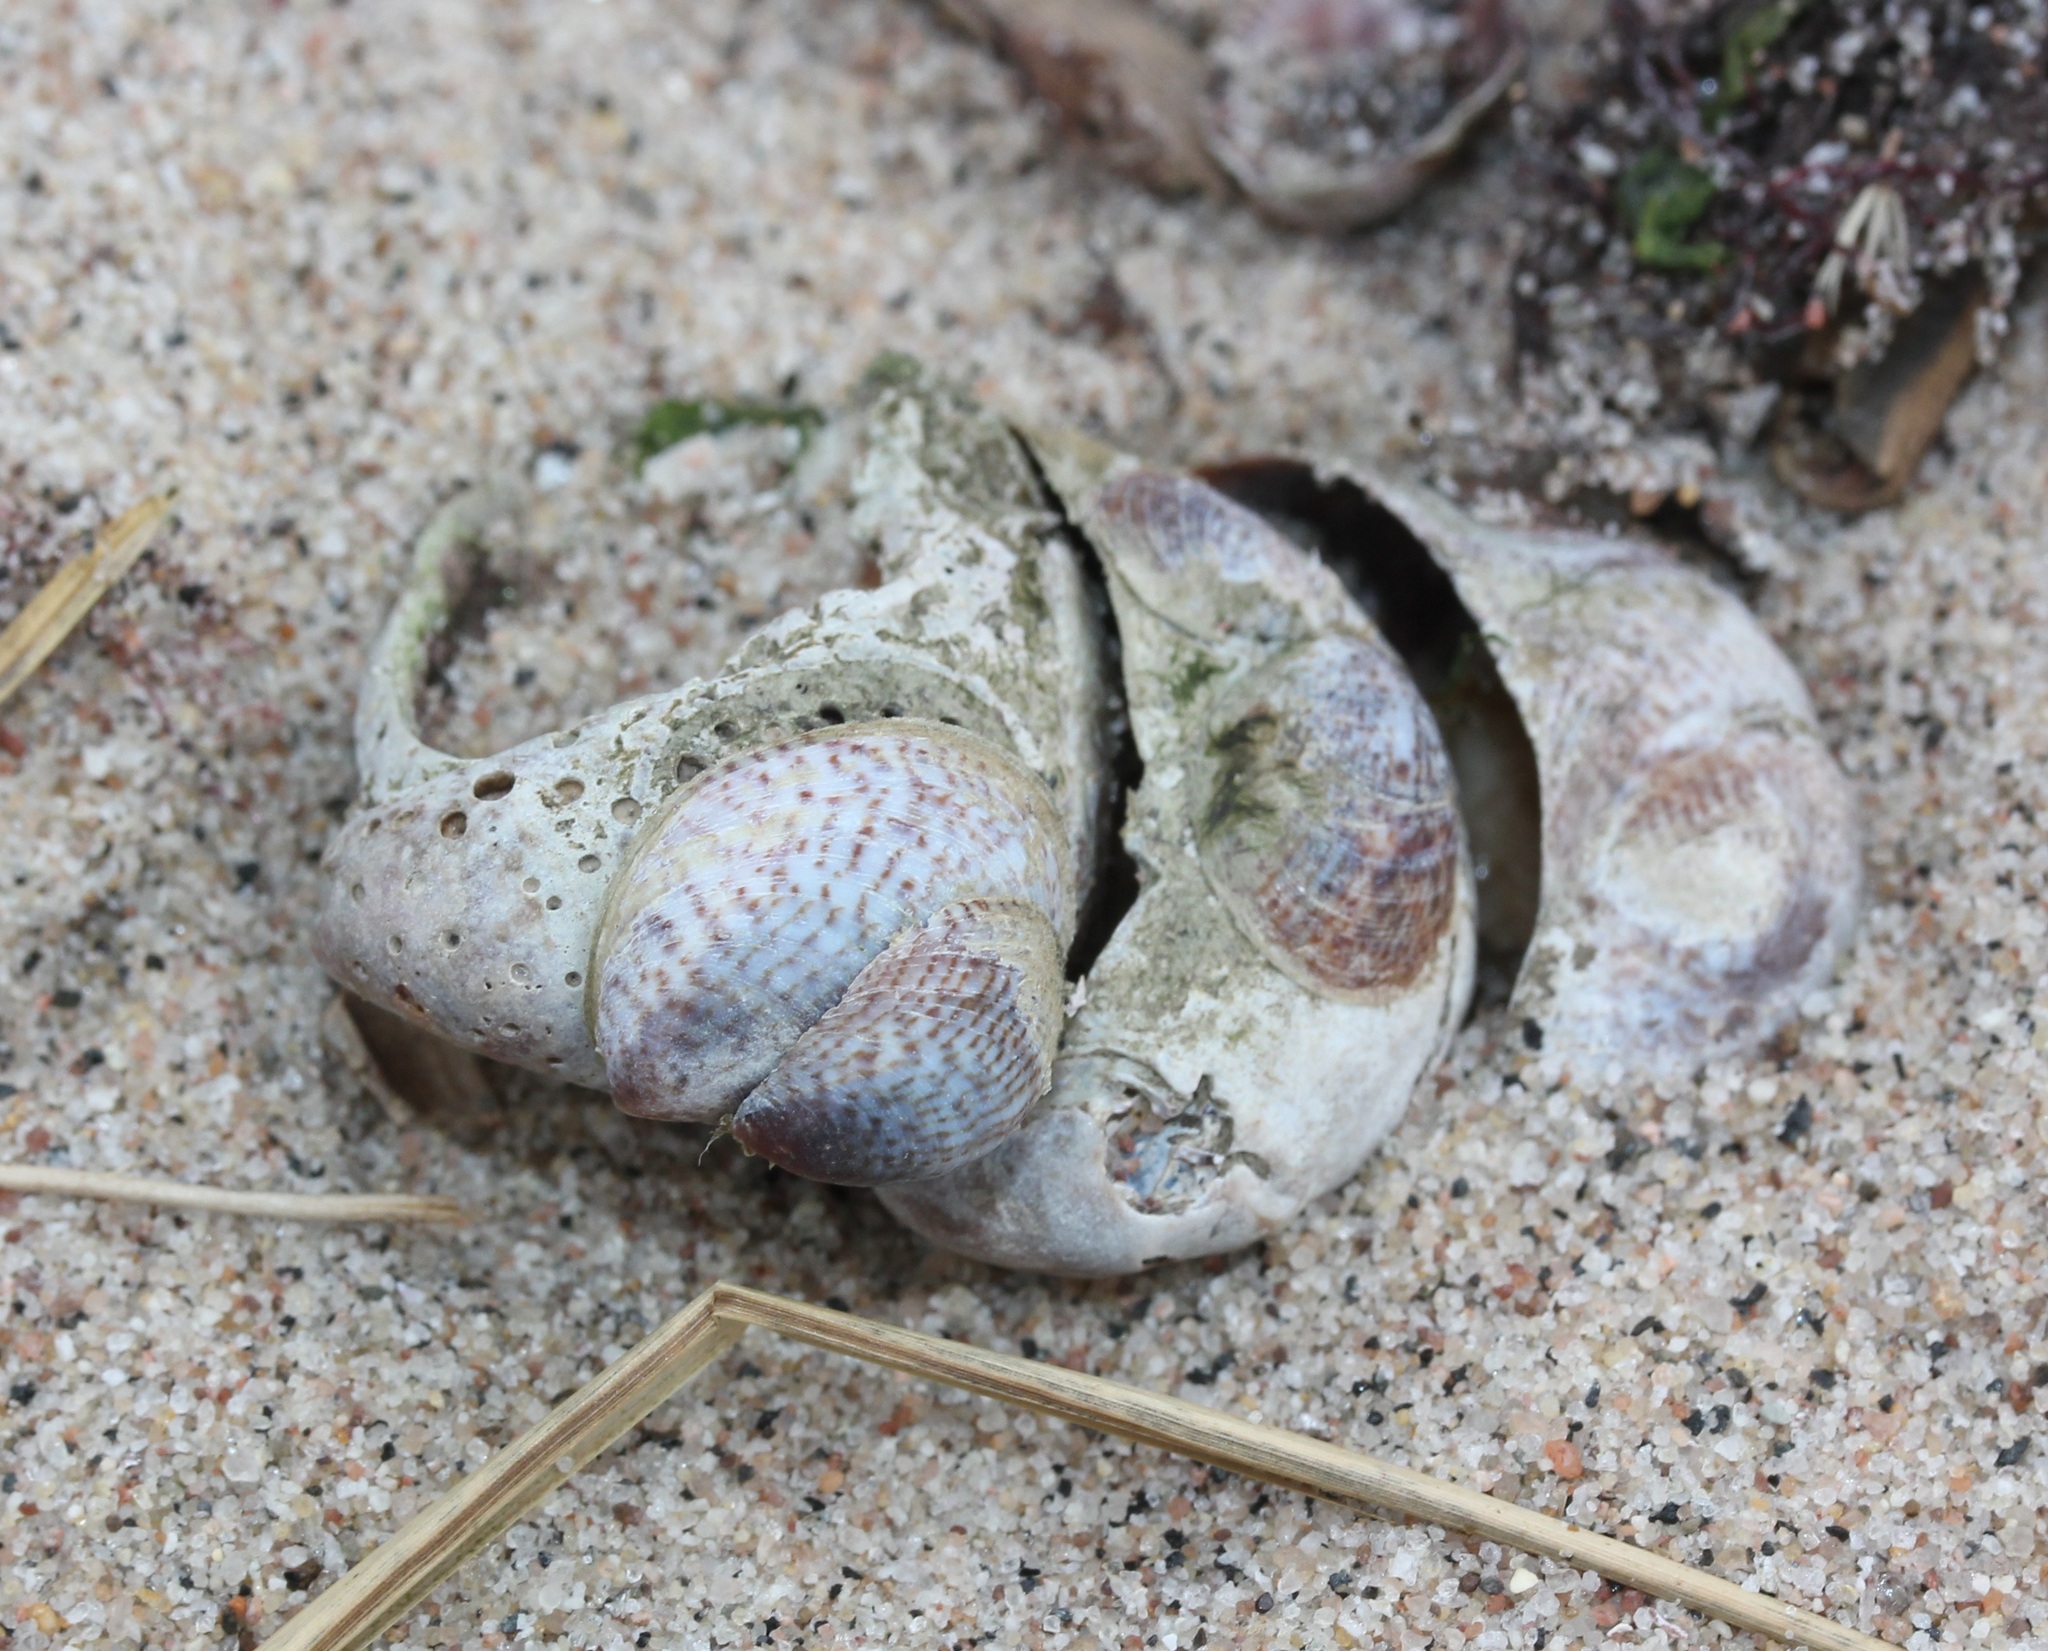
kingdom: Animalia
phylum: Mollusca
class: Gastropoda
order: Littorinimorpha
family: Calyptraeidae
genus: Crepidula
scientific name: Crepidula fornicata
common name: Slipper limpet
